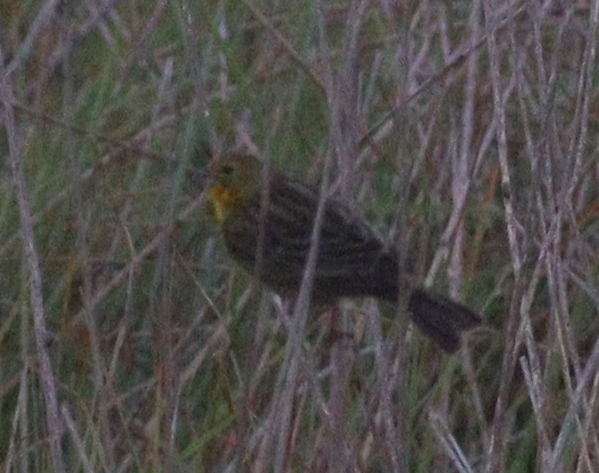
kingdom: Animalia
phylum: Chordata
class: Aves
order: Passeriformes
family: Thraupidae
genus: Sicalis
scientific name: Sicalis luteola
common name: Grassland yellow-finch
